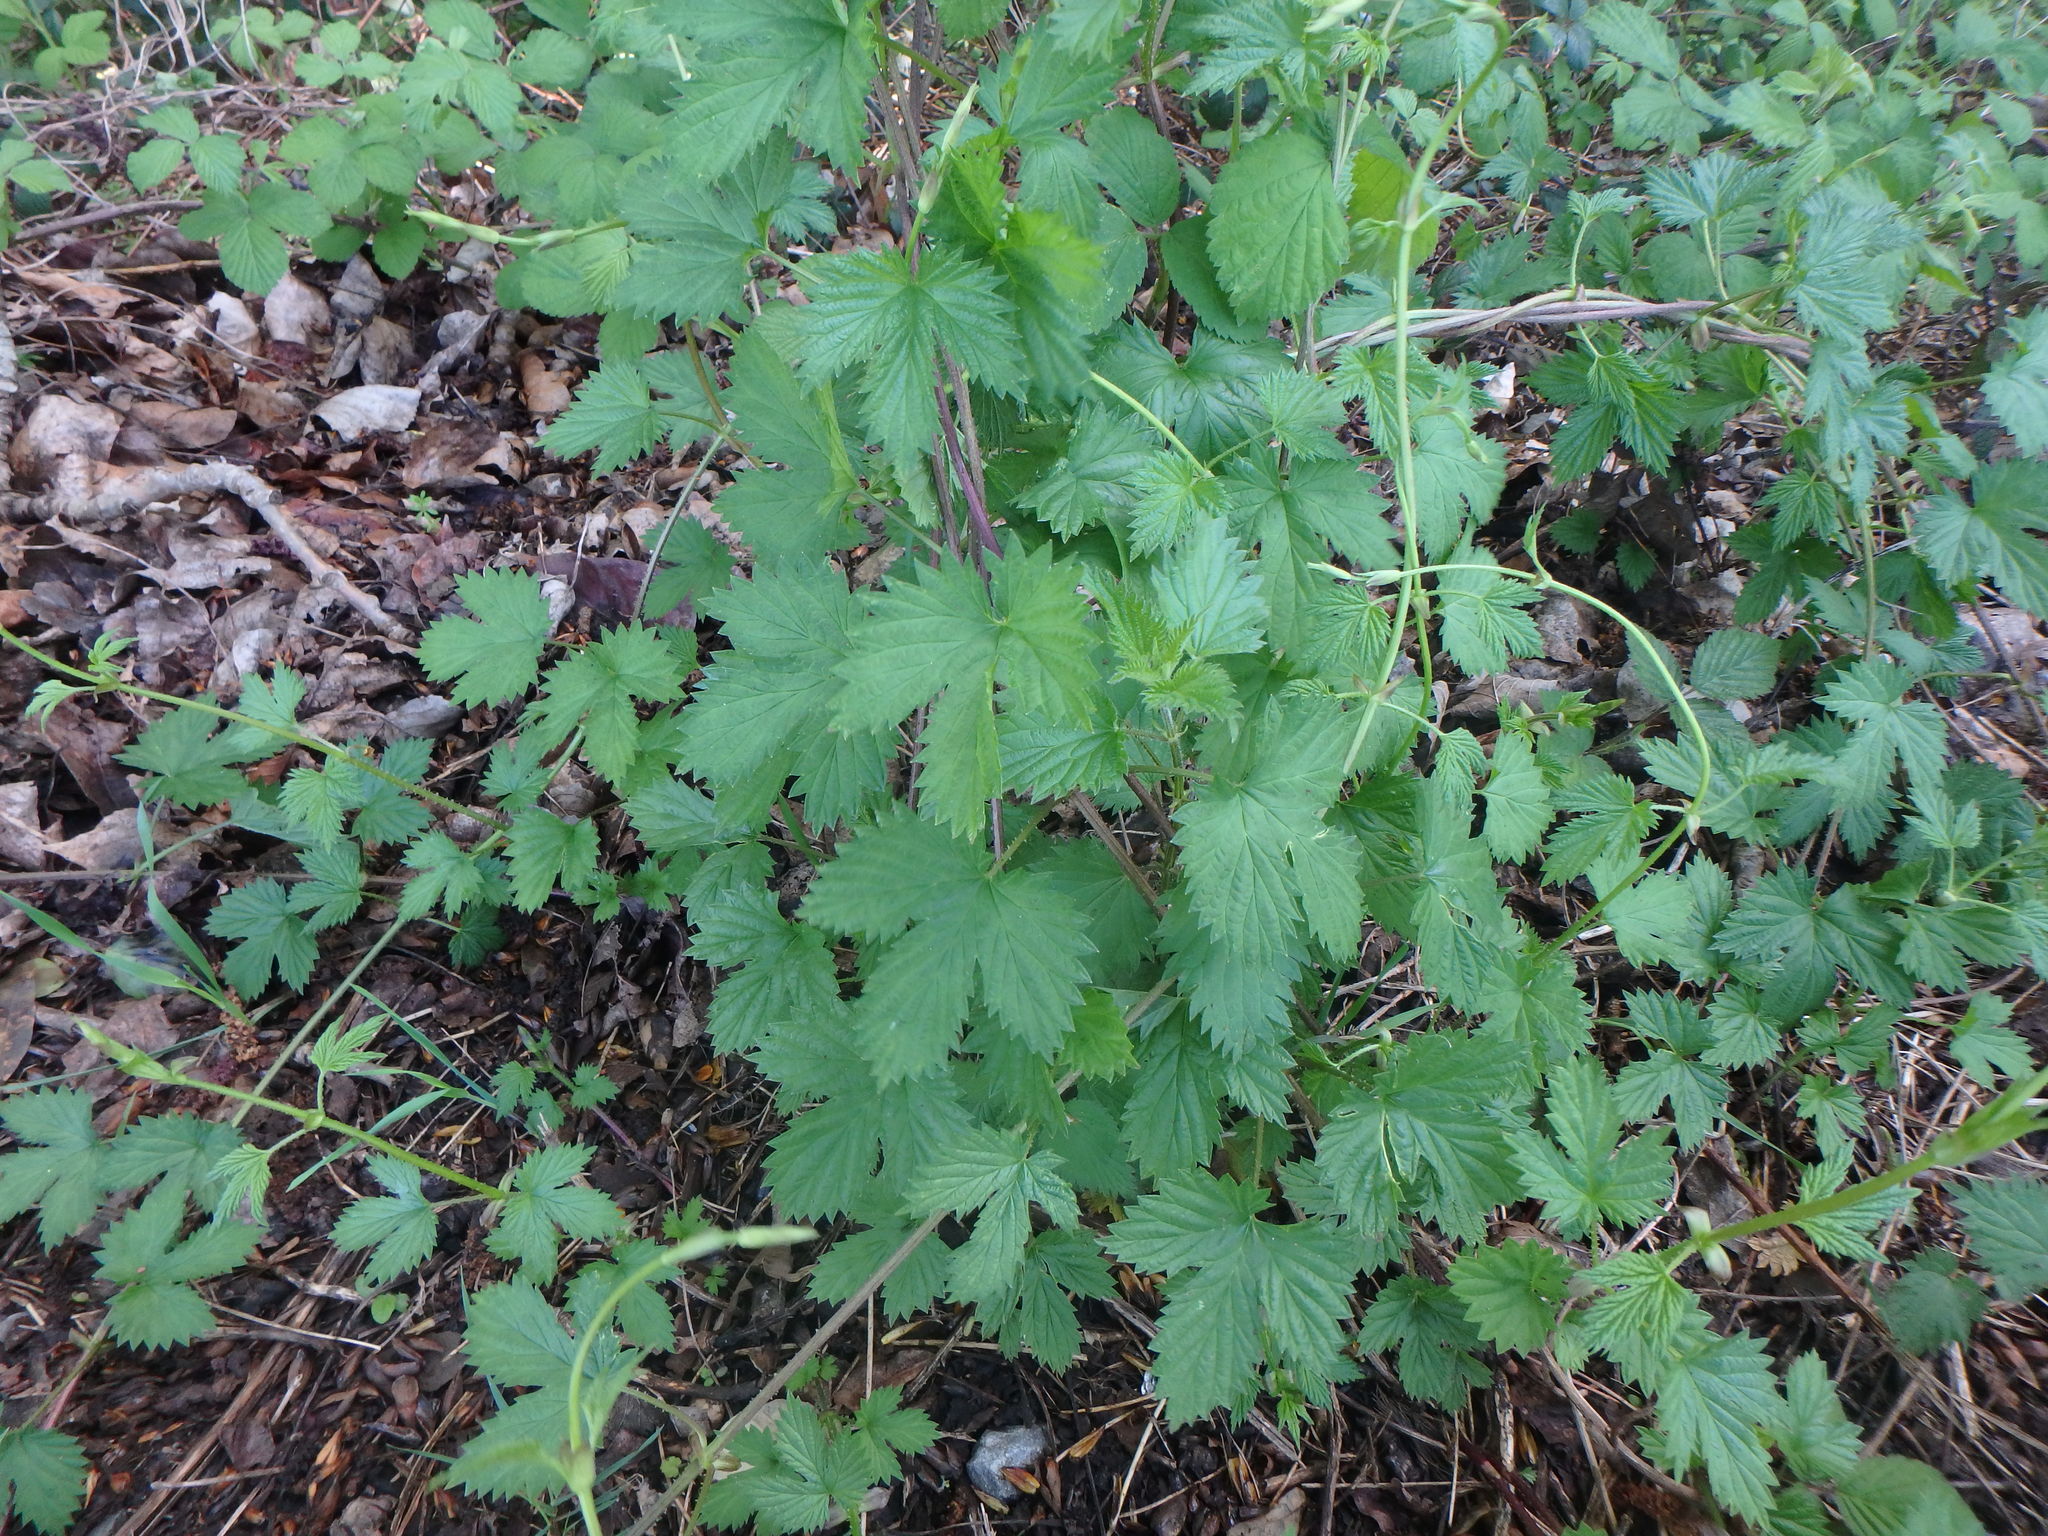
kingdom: Plantae
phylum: Tracheophyta
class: Magnoliopsida
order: Rosales
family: Cannabaceae
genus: Humulus
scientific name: Humulus lupulus
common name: Hop
